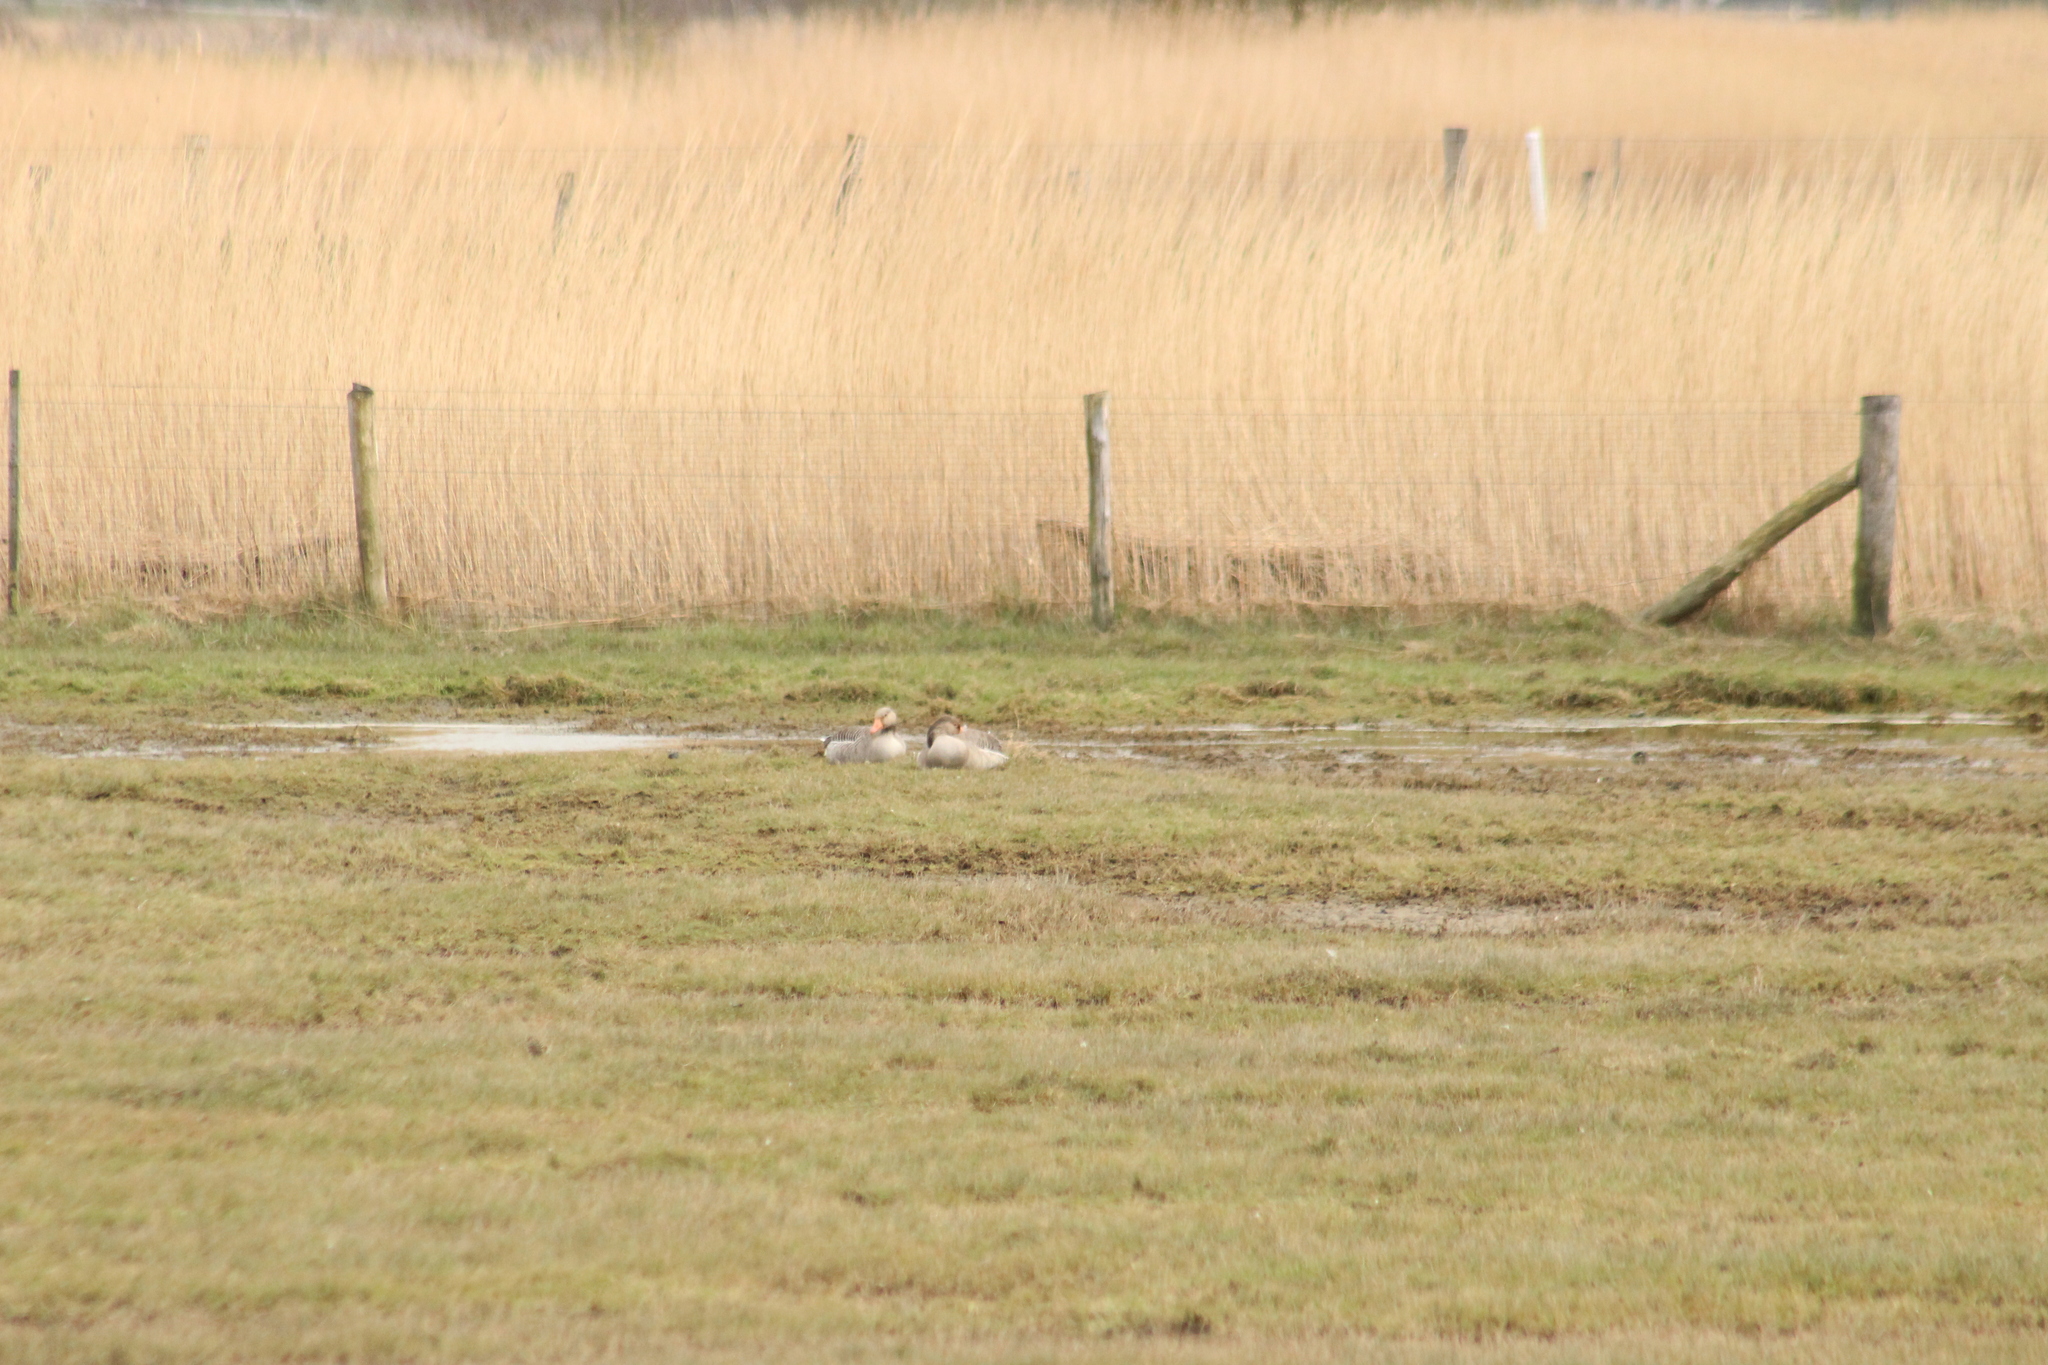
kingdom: Animalia
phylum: Chordata
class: Aves
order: Anseriformes
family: Anatidae
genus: Anser
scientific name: Anser anser
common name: Greylag goose
